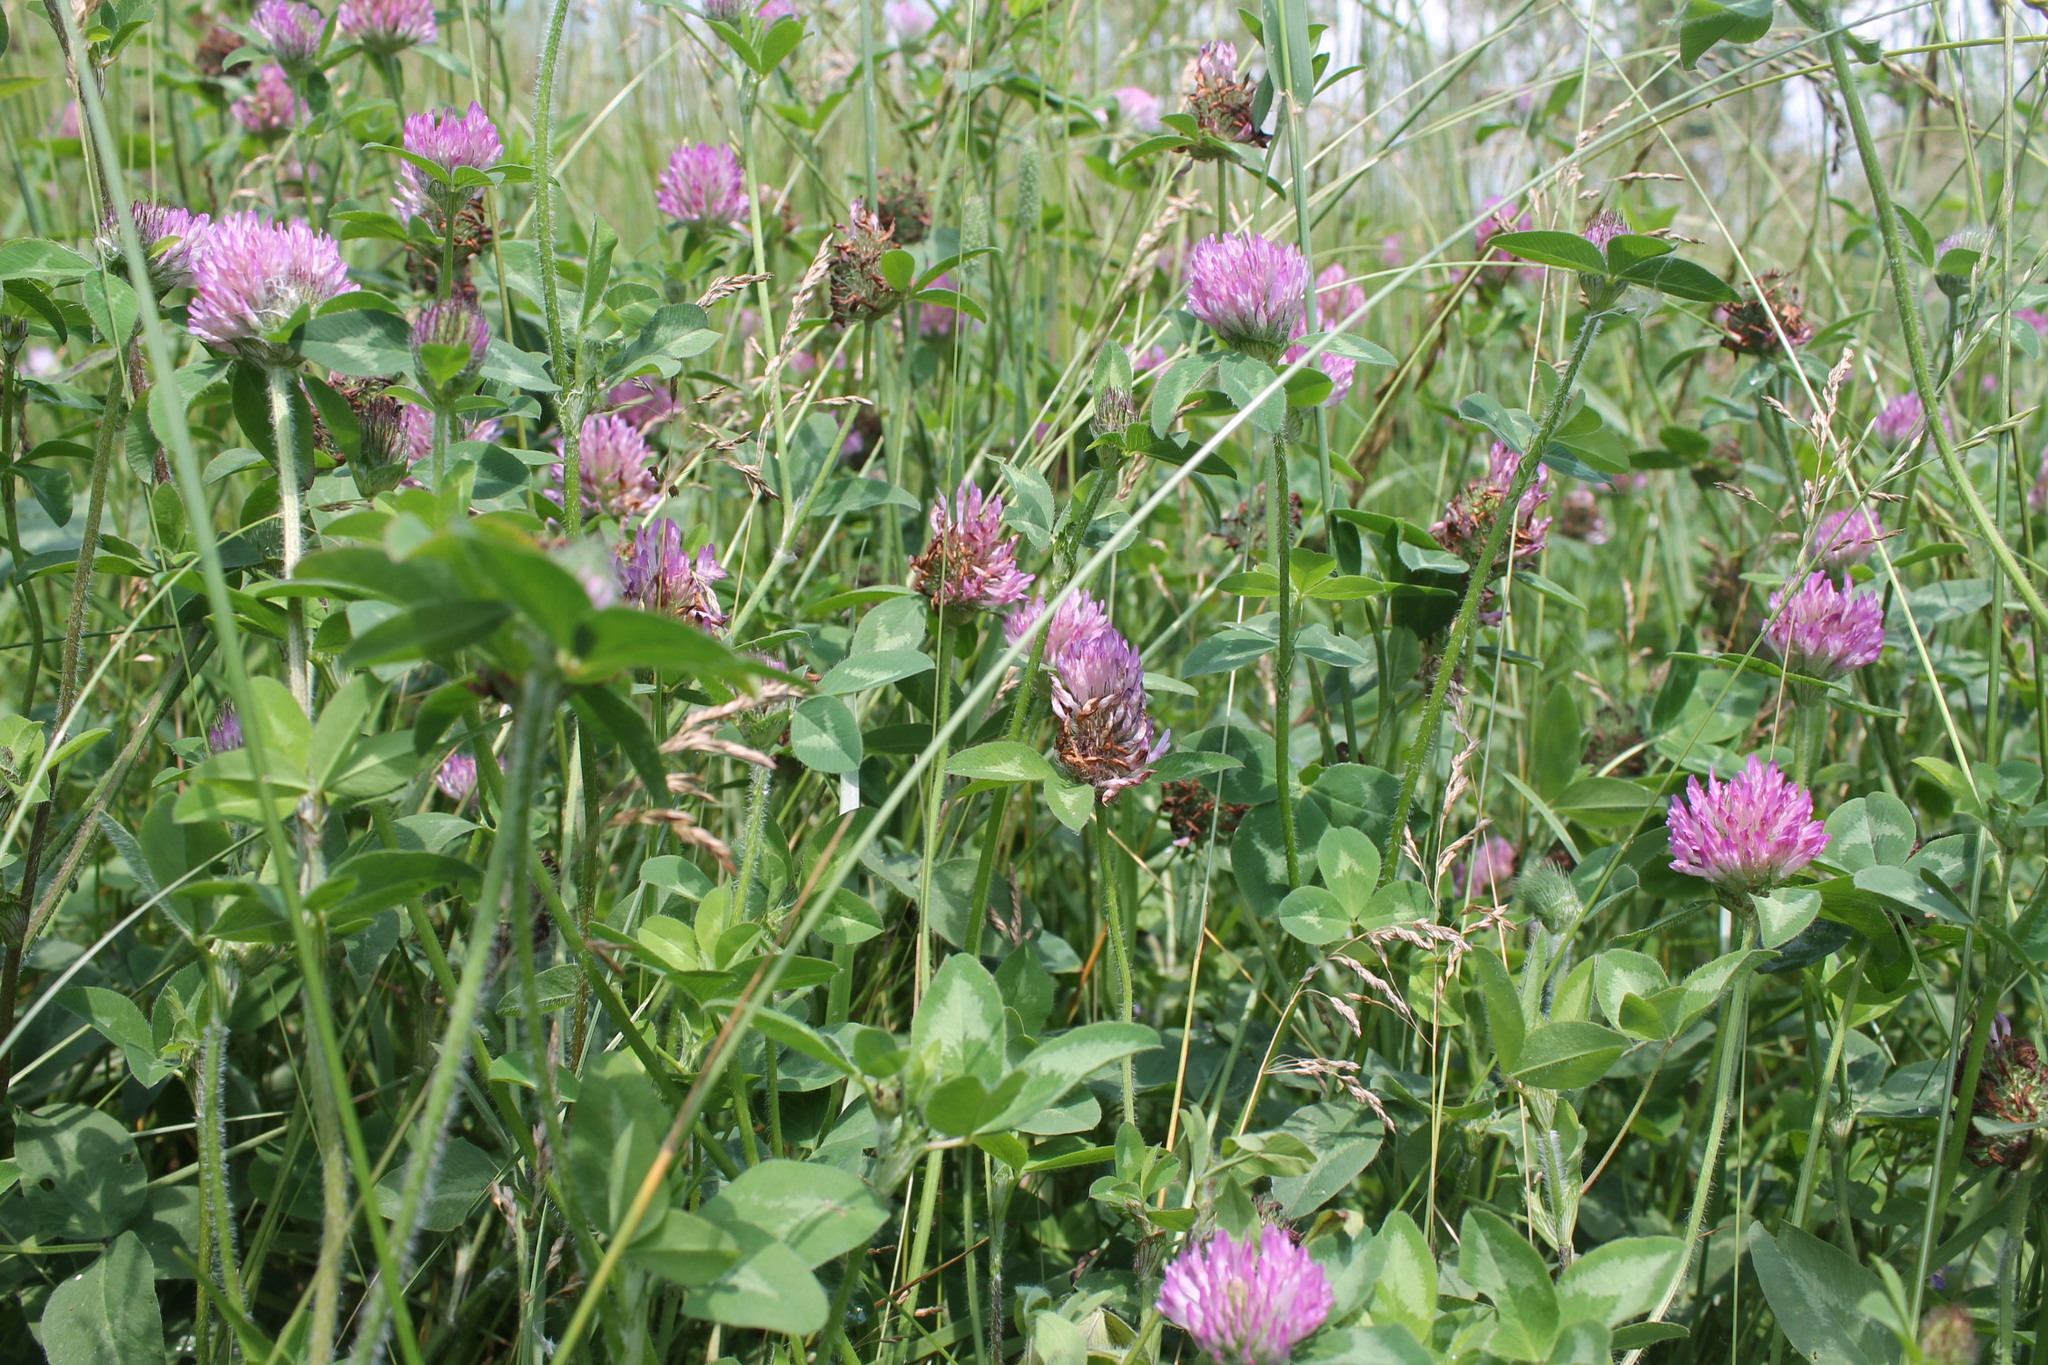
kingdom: Plantae
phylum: Tracheophyta
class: Magnoliopsida
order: Fabales
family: Fabaceae
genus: Trifolium
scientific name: Trifolium pratense
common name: Red clover
